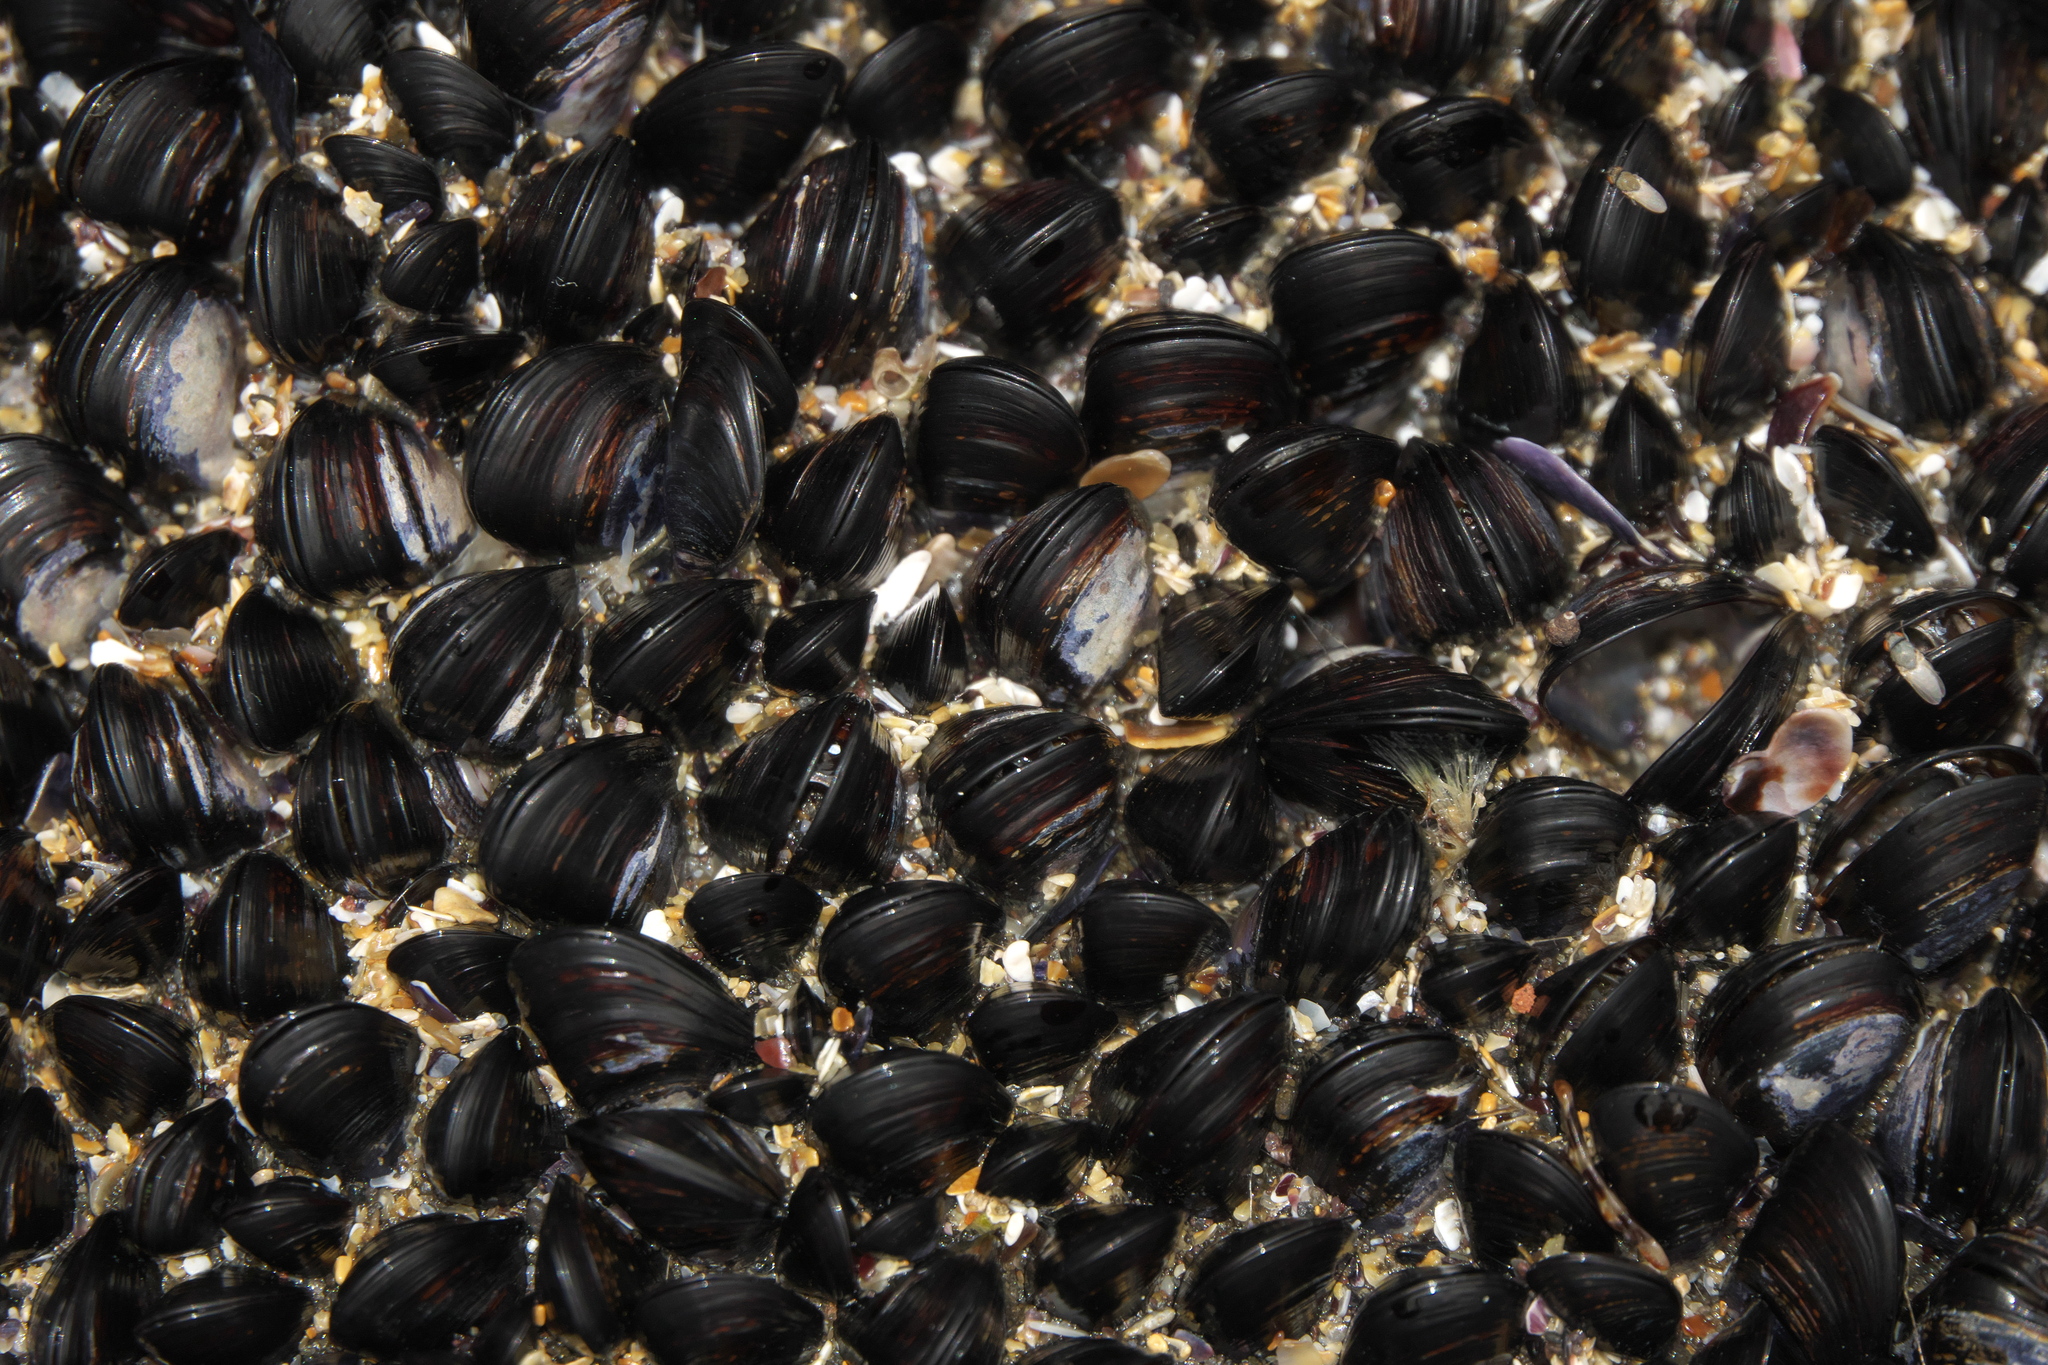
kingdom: Animalia
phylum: Mollusca
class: Bivalvia
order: Mytilida
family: Mytilidae
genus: Xenostrobus
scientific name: Xenostrobus neozelanicus
